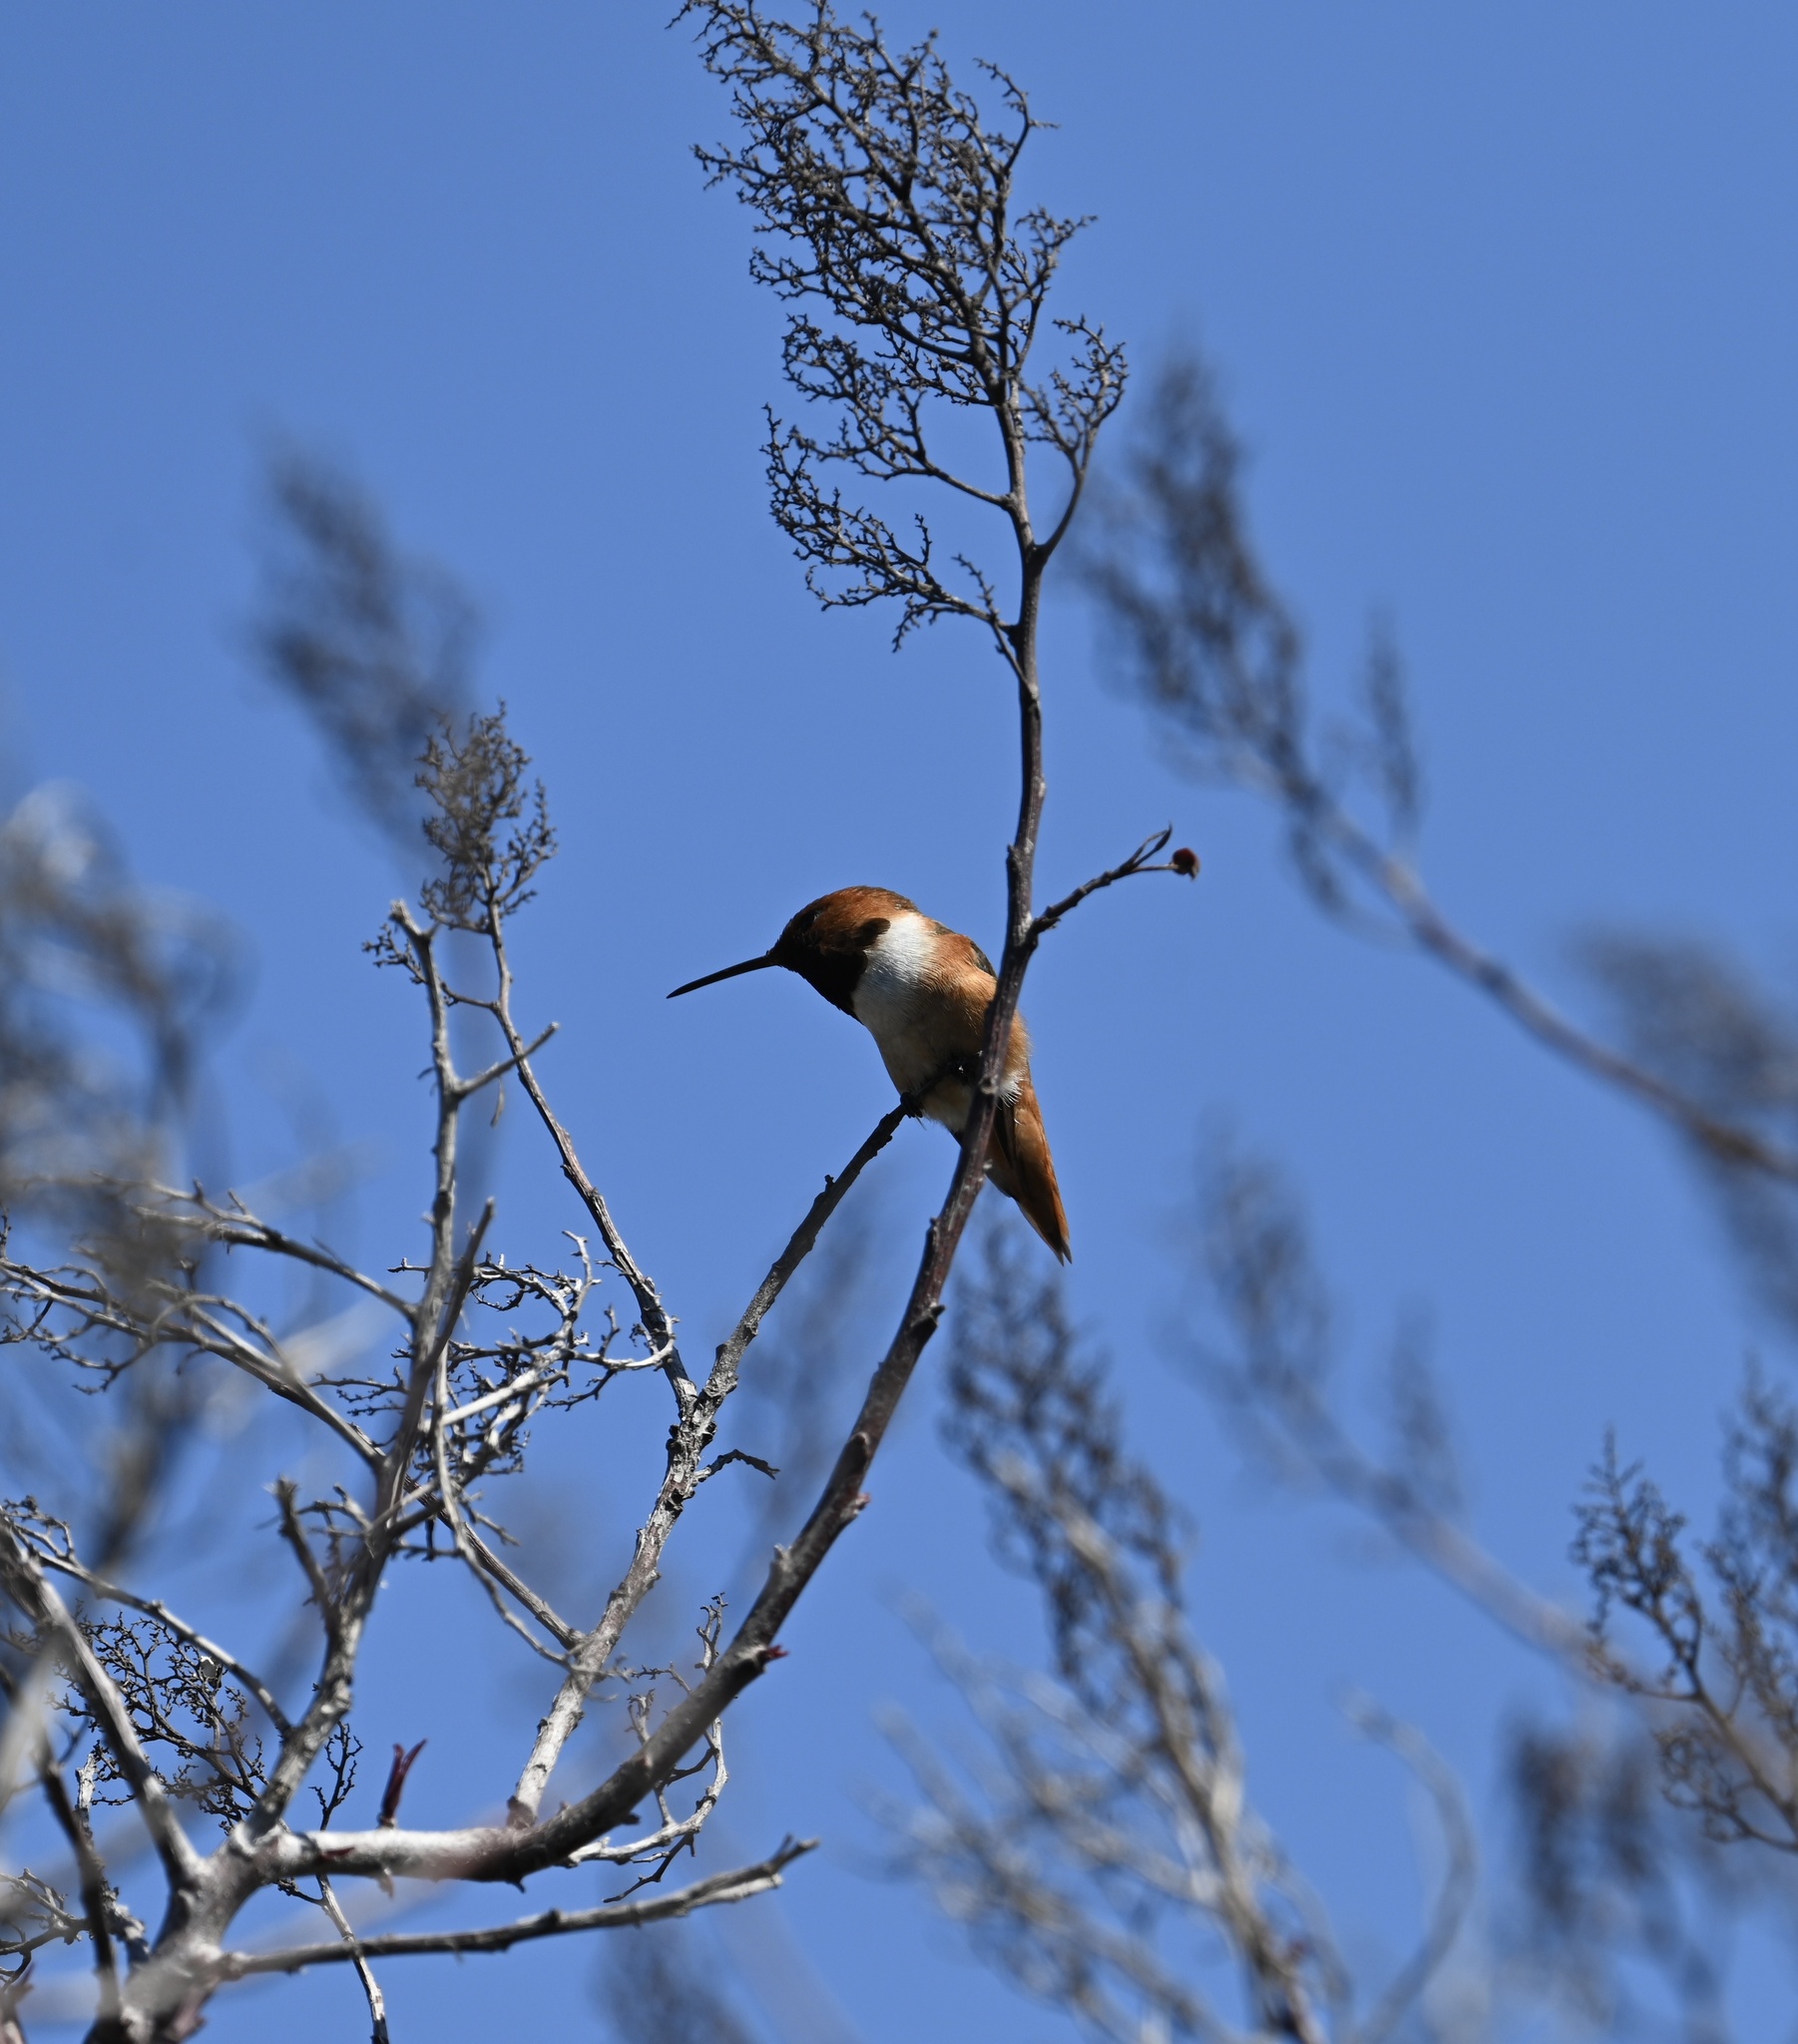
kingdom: Animalia
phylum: Chordata
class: Aves
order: Apodiformes
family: Trochilidae
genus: Selasphorus
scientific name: Selasphorus sasin
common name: Allen's hummingbird
